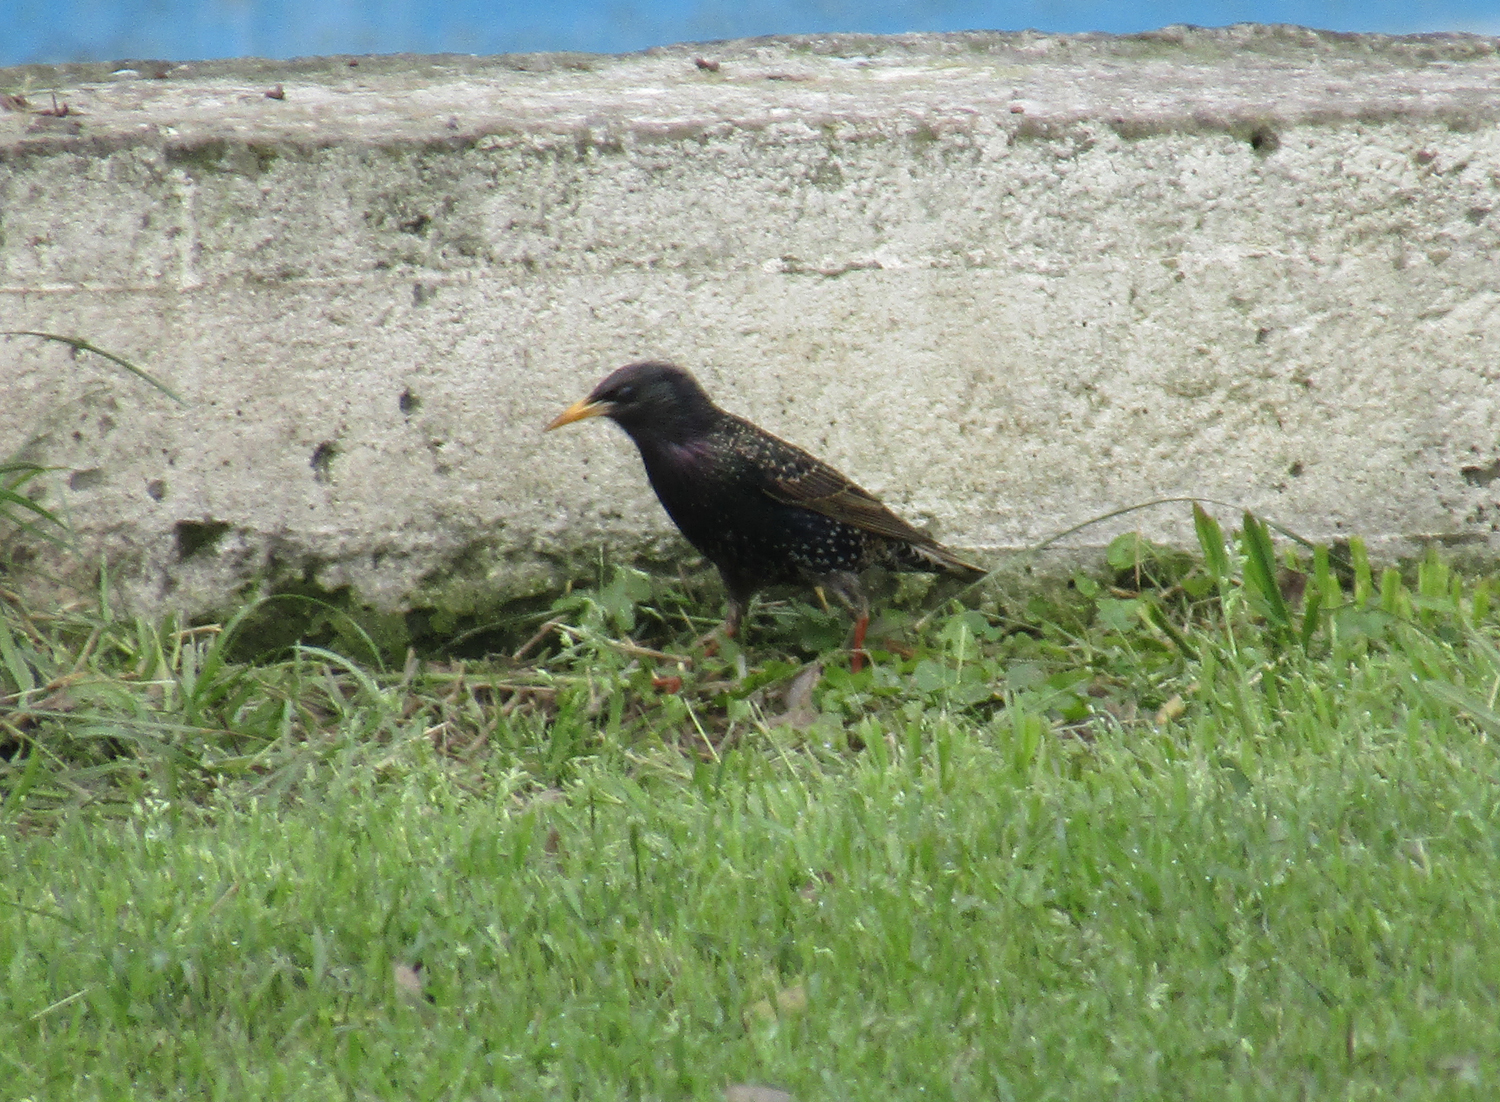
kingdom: Animalia
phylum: Chordata
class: Aves
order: Passeriformes
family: Sturnidae
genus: Sturnus
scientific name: Sturnus vulgaris
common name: Common starling
